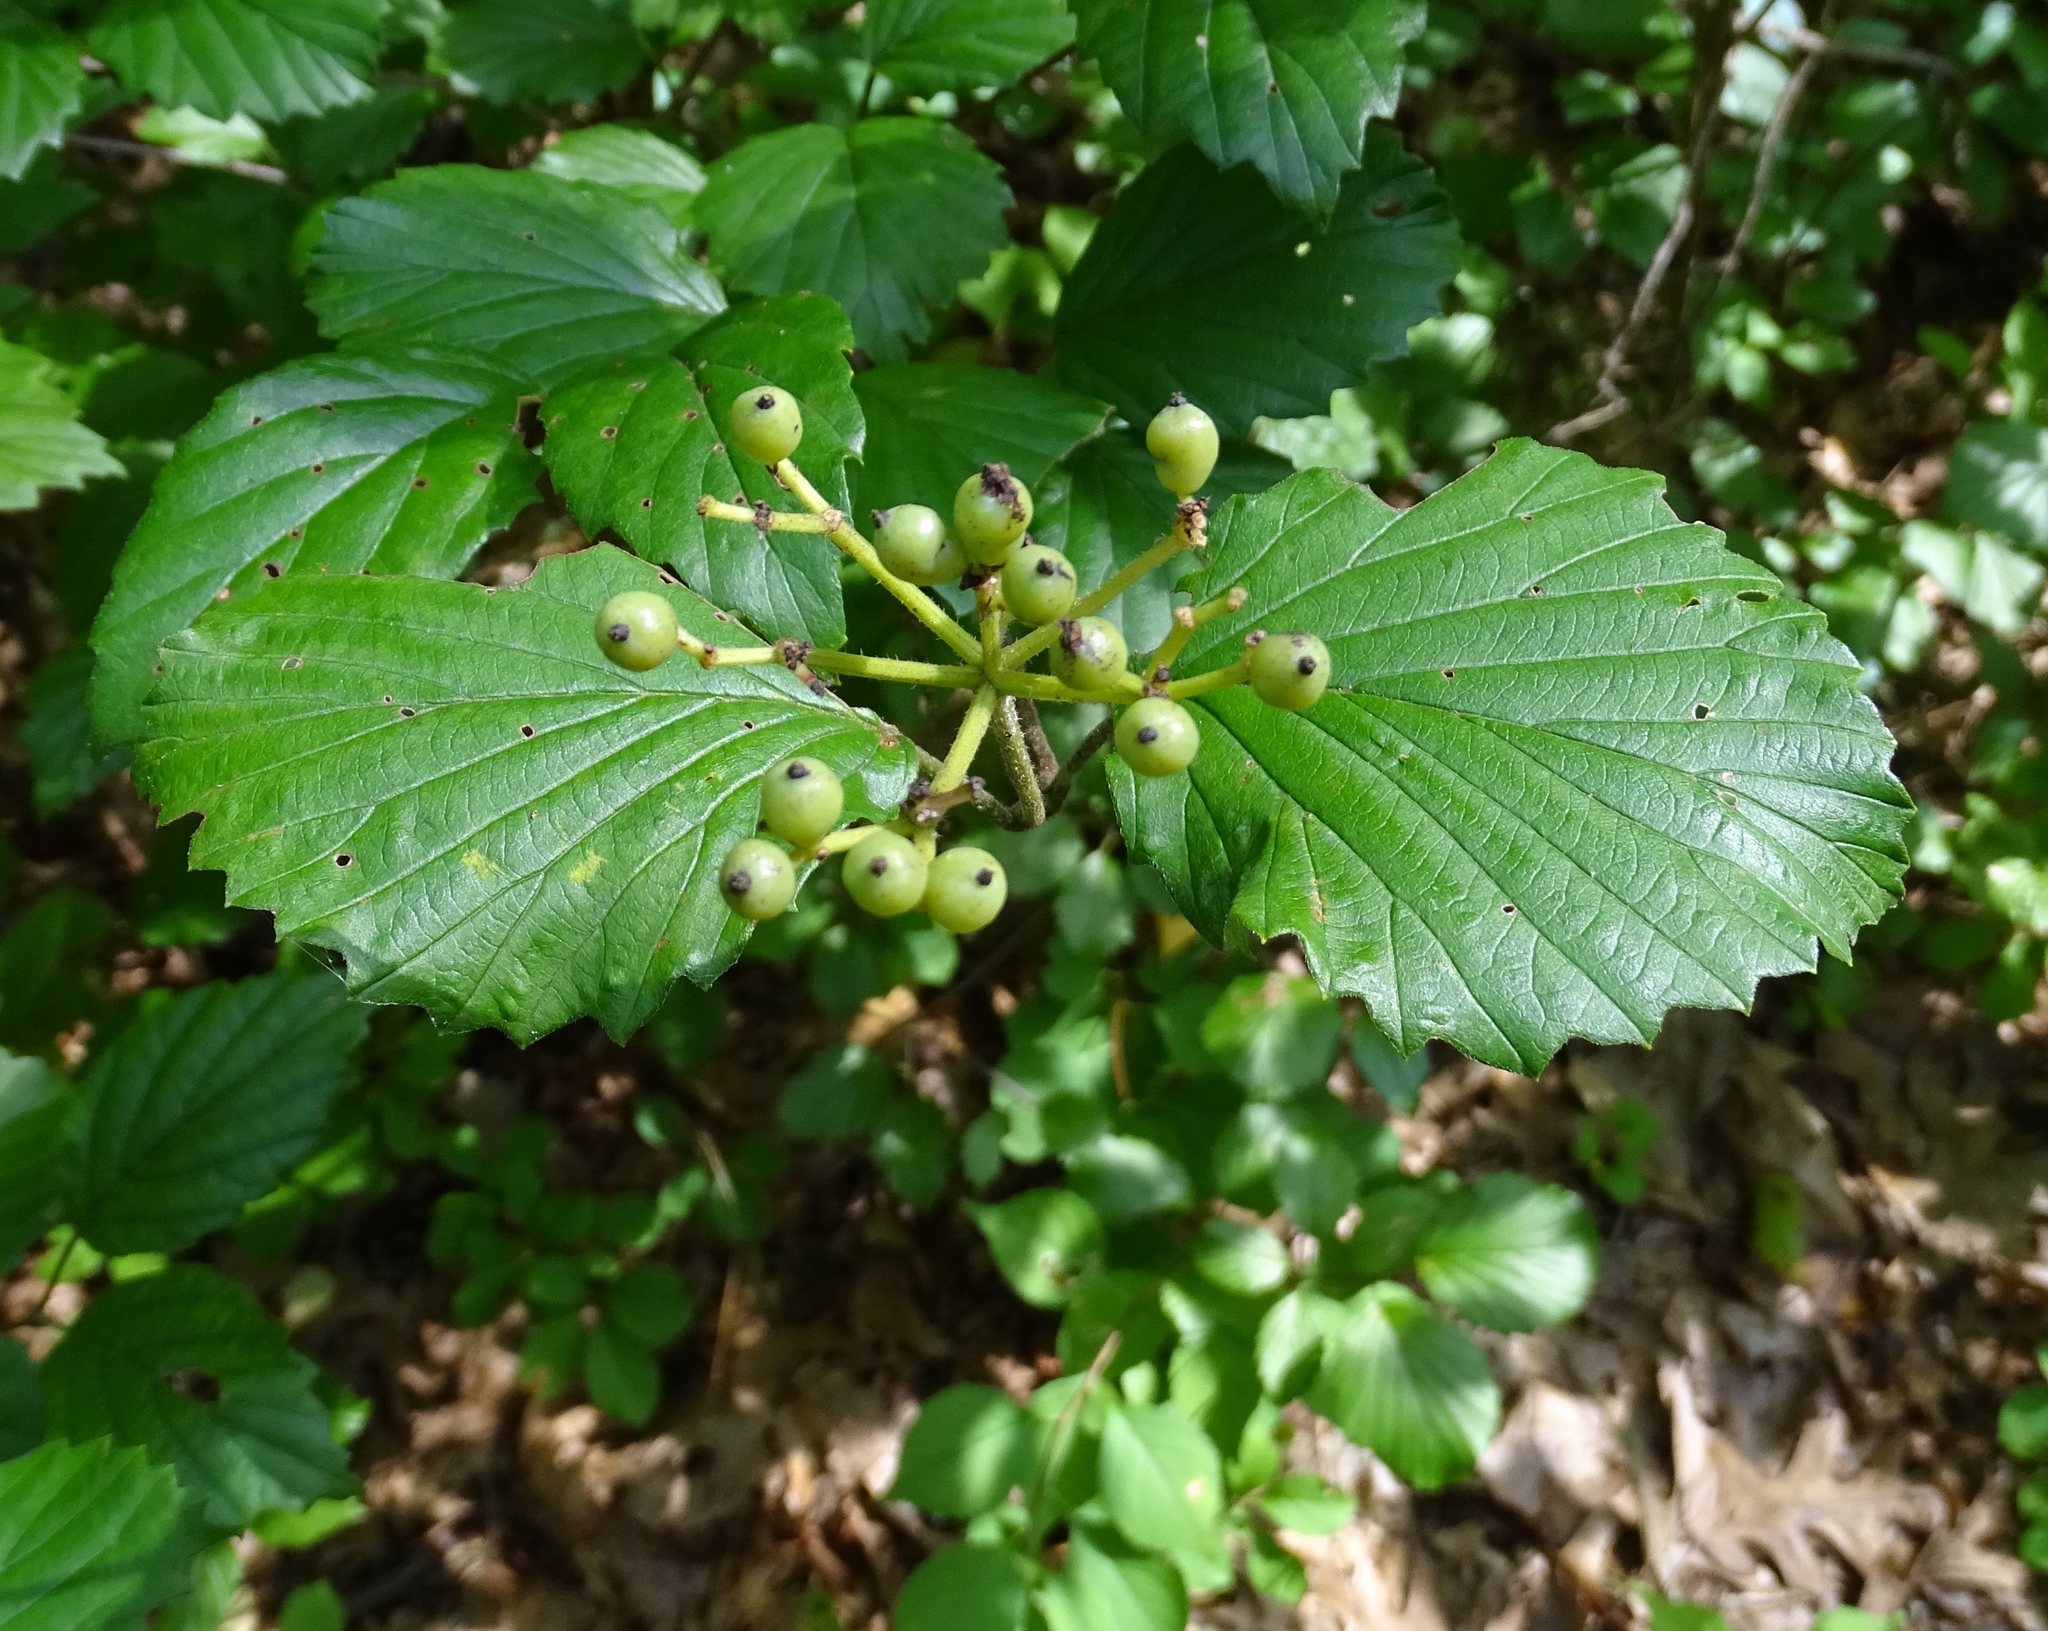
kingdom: Plantae
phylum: Tracheophyta
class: Magnoliopsida
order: Dipsacales
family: Viburnaceae
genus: Viburnum
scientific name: Viburnum dentatum
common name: Arrow-wood
